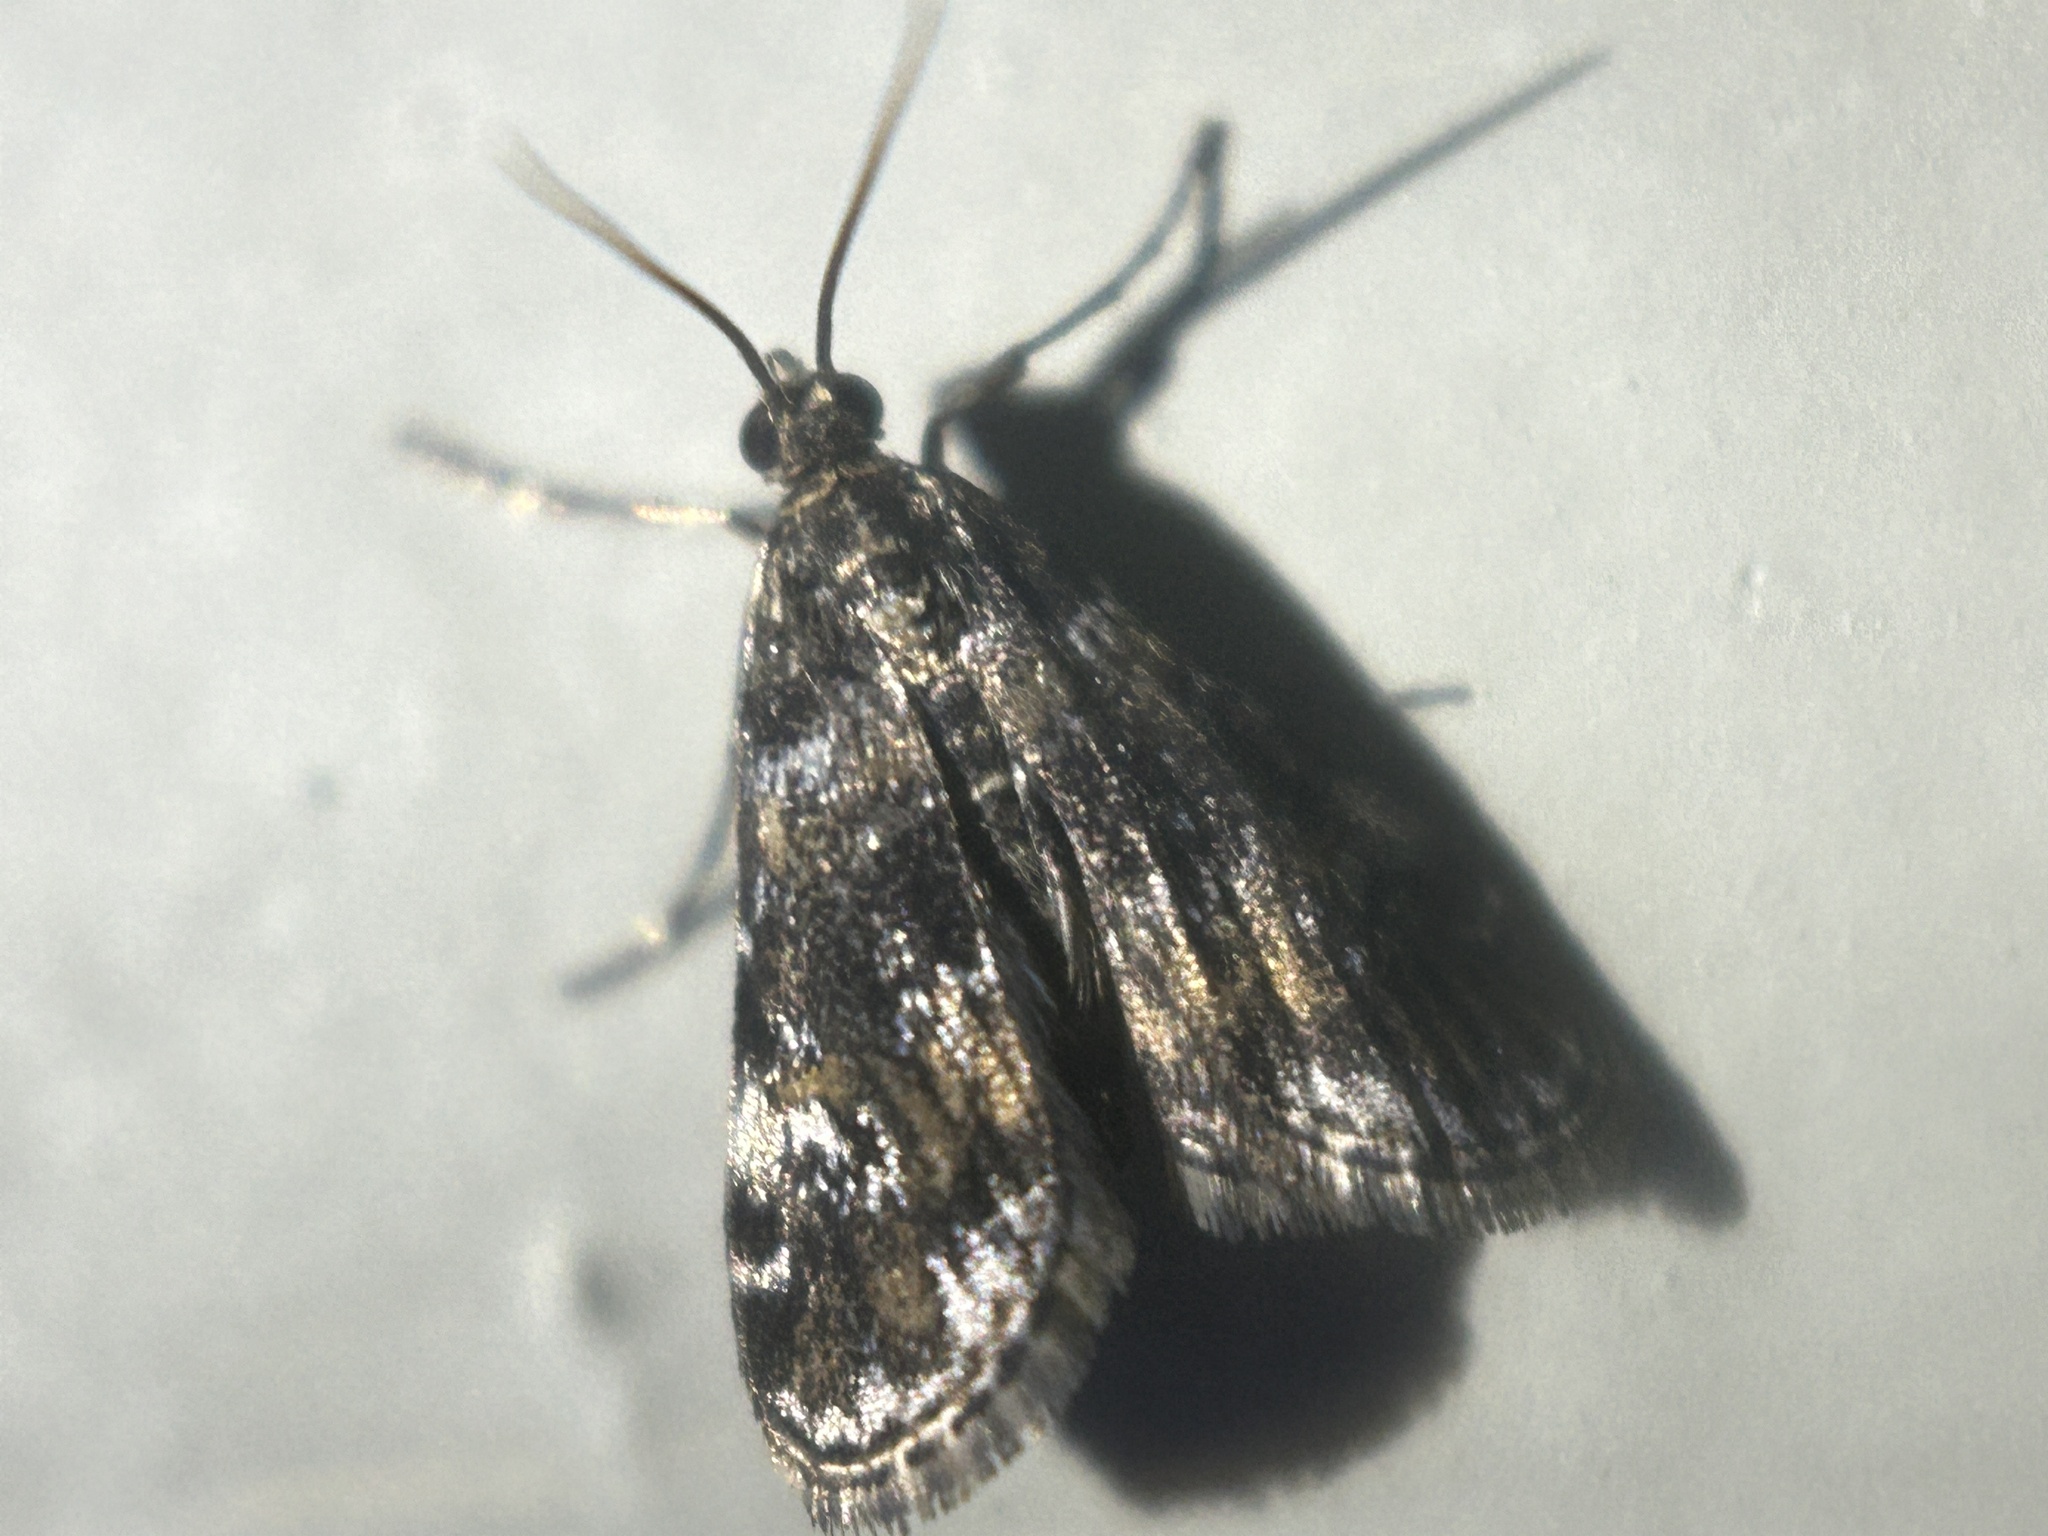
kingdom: Animalia
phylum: Arthropoda
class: Insecta
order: Lepidoptera
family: Crambidae
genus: Elophila
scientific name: Elophila obliteralis
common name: Waterlily leafcutter moth
